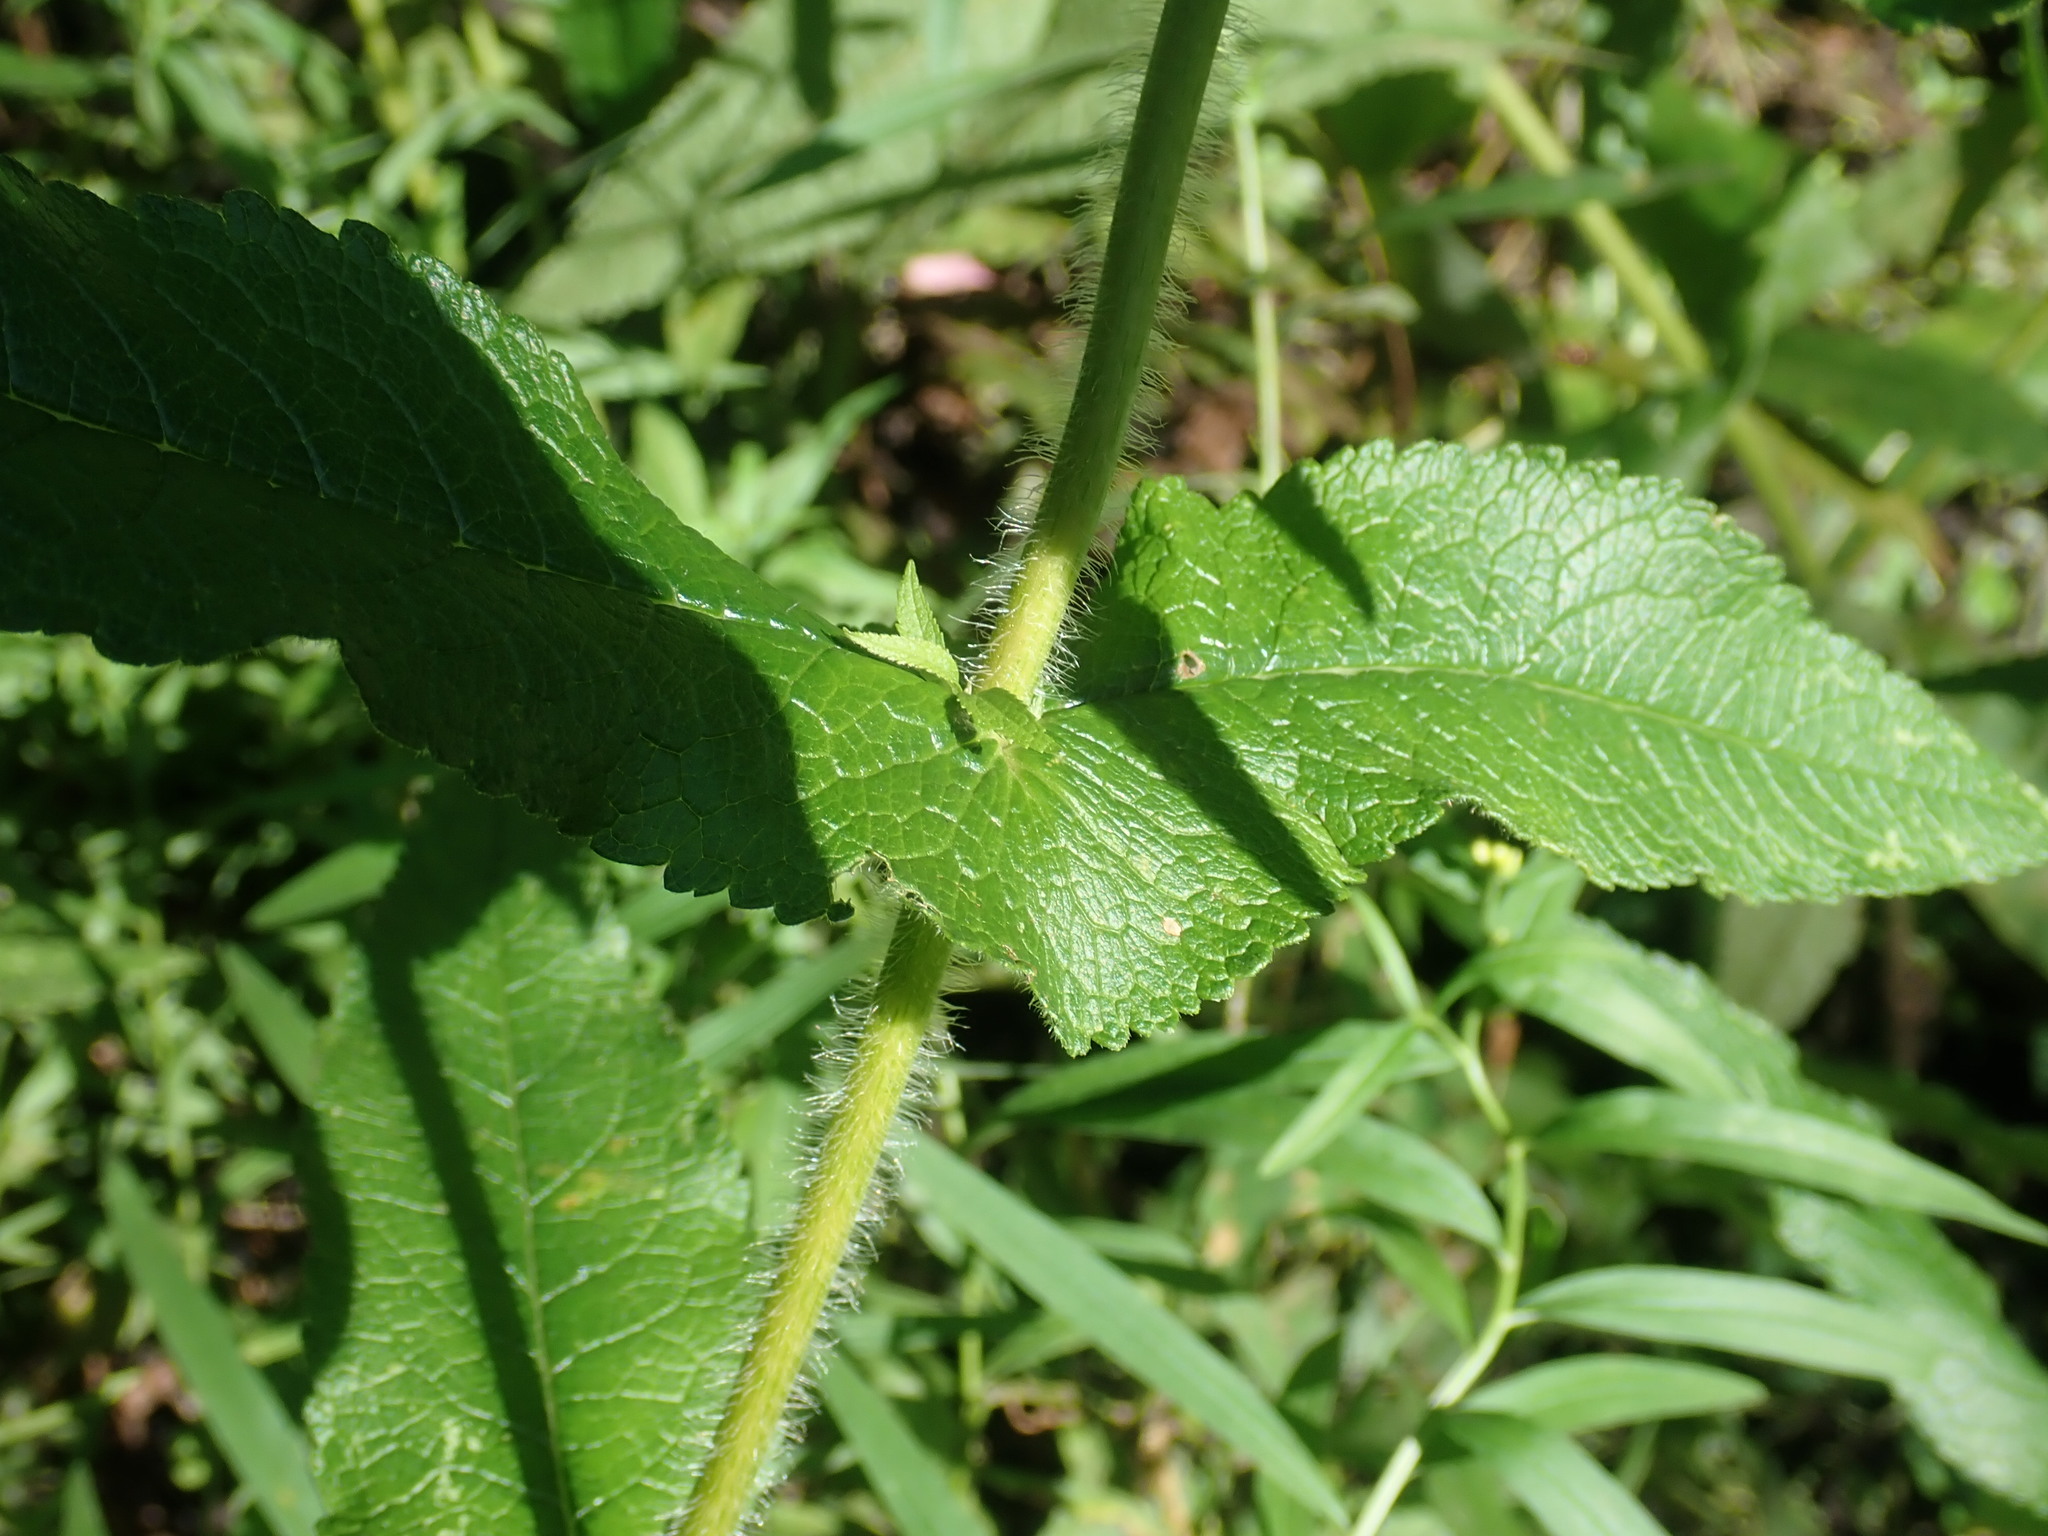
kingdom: Plantae
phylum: Tracheophyta
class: Magnoliopsida
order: Asterales
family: Asteraceae
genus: Eupatorium
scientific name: Eupatorium perfoliatum
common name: Boneset
